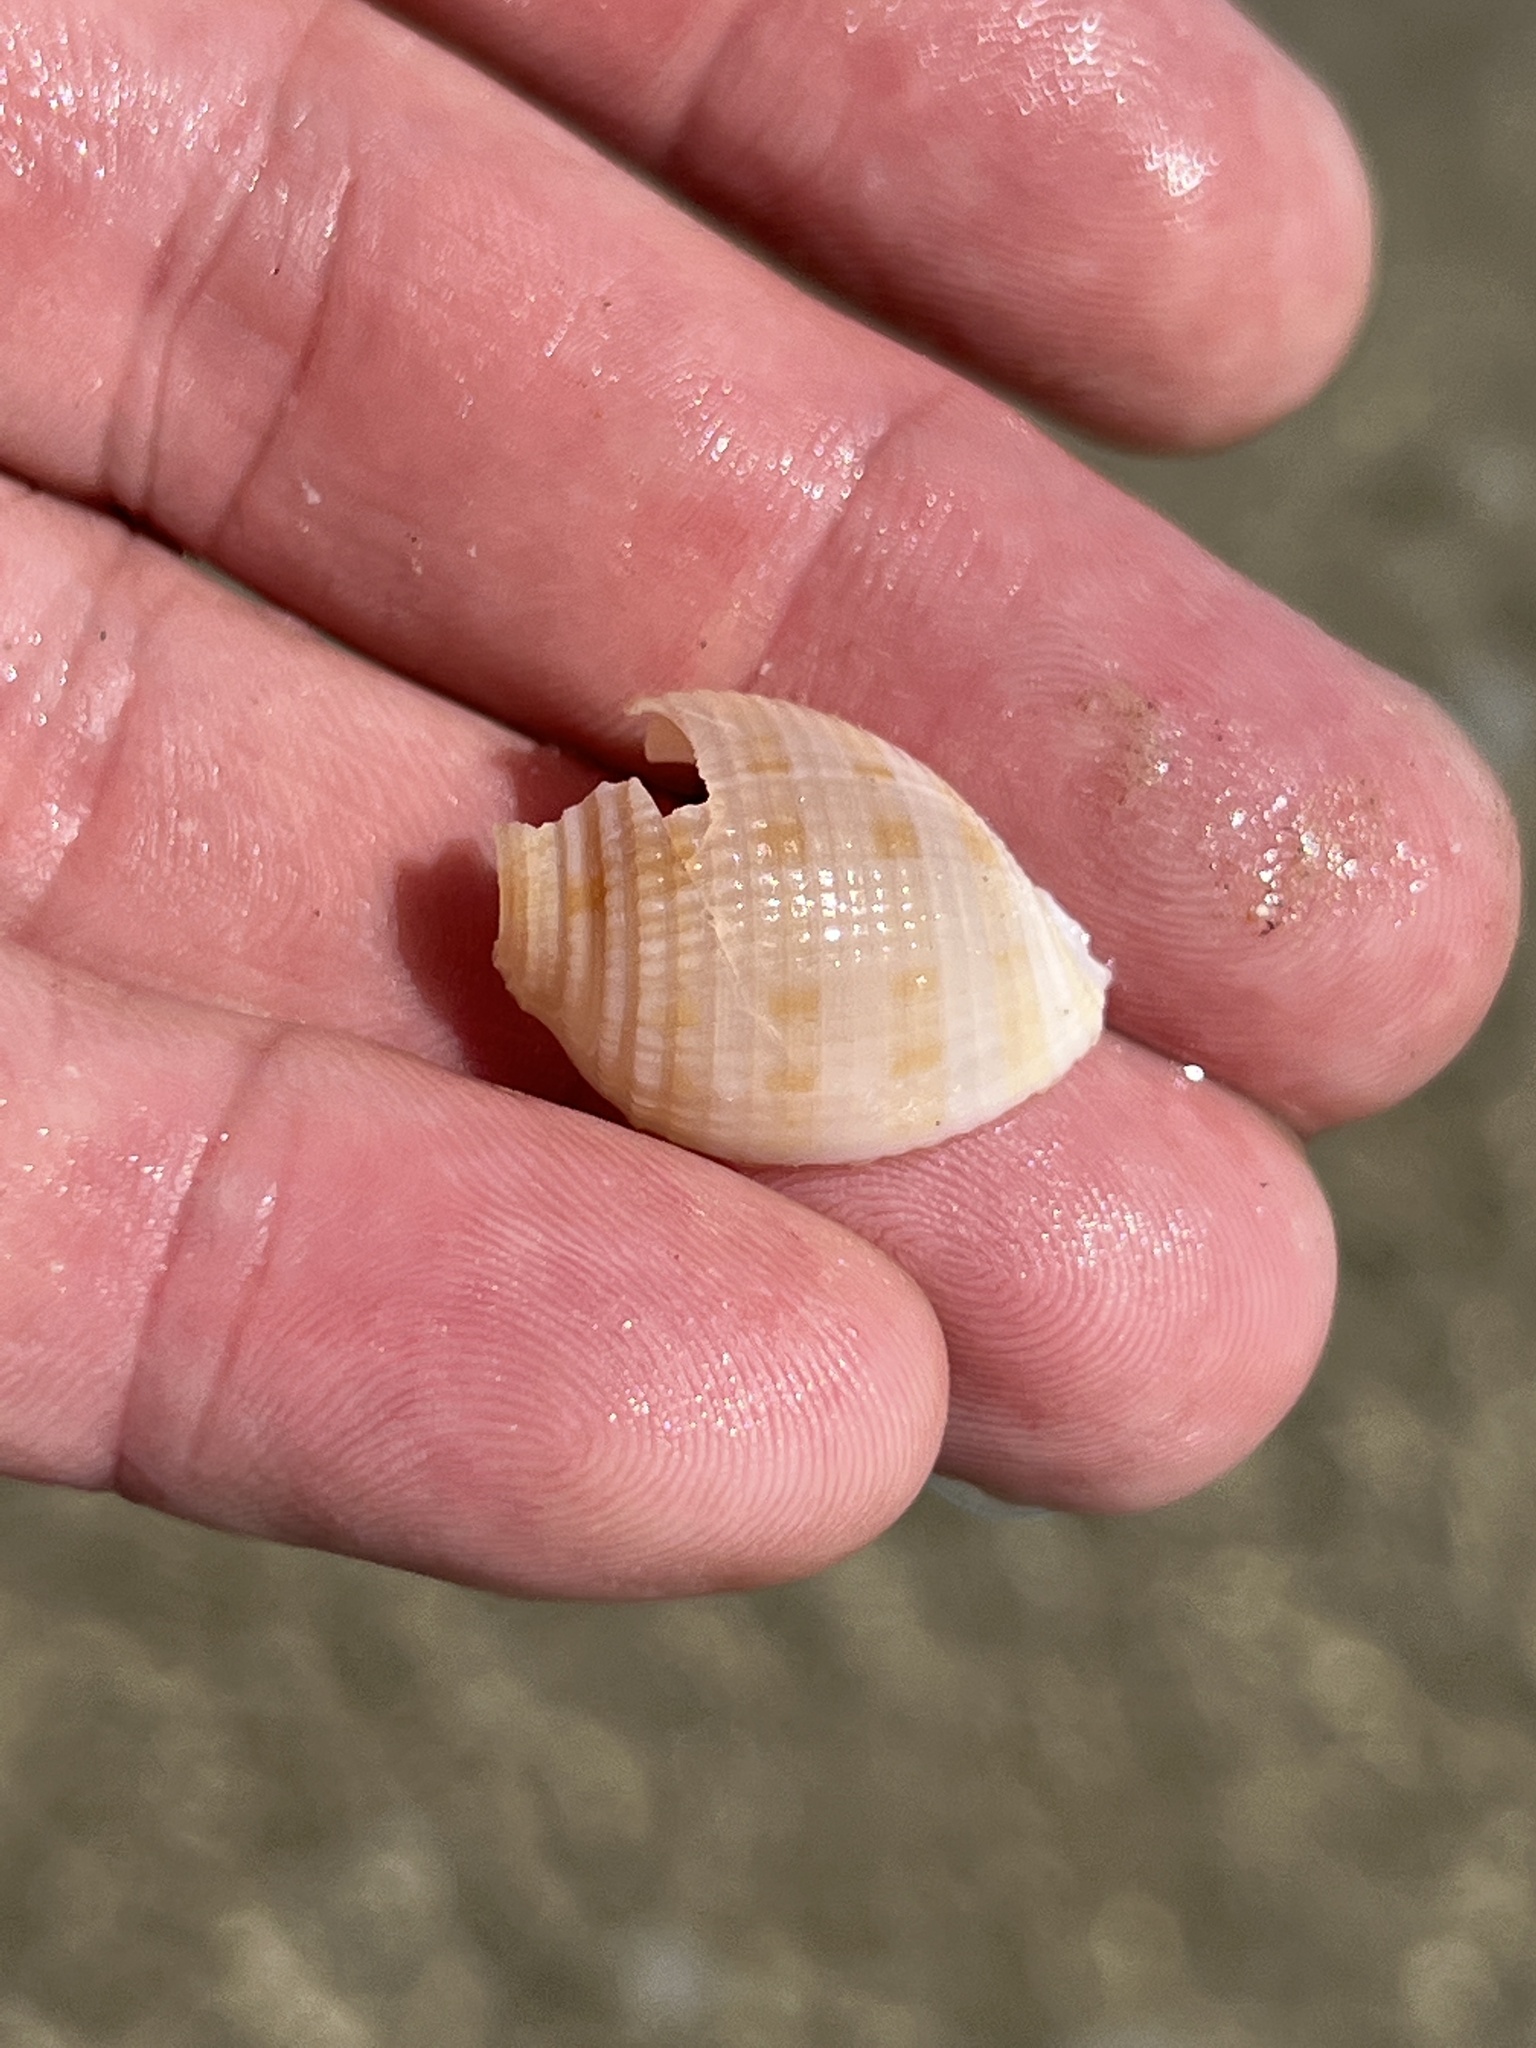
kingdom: Animalia
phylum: Mollusca
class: Gastropoda
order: Littorinimorpha
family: Cassidae
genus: Semicassis
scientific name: Semicassis granulata
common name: Scotch bonnet
